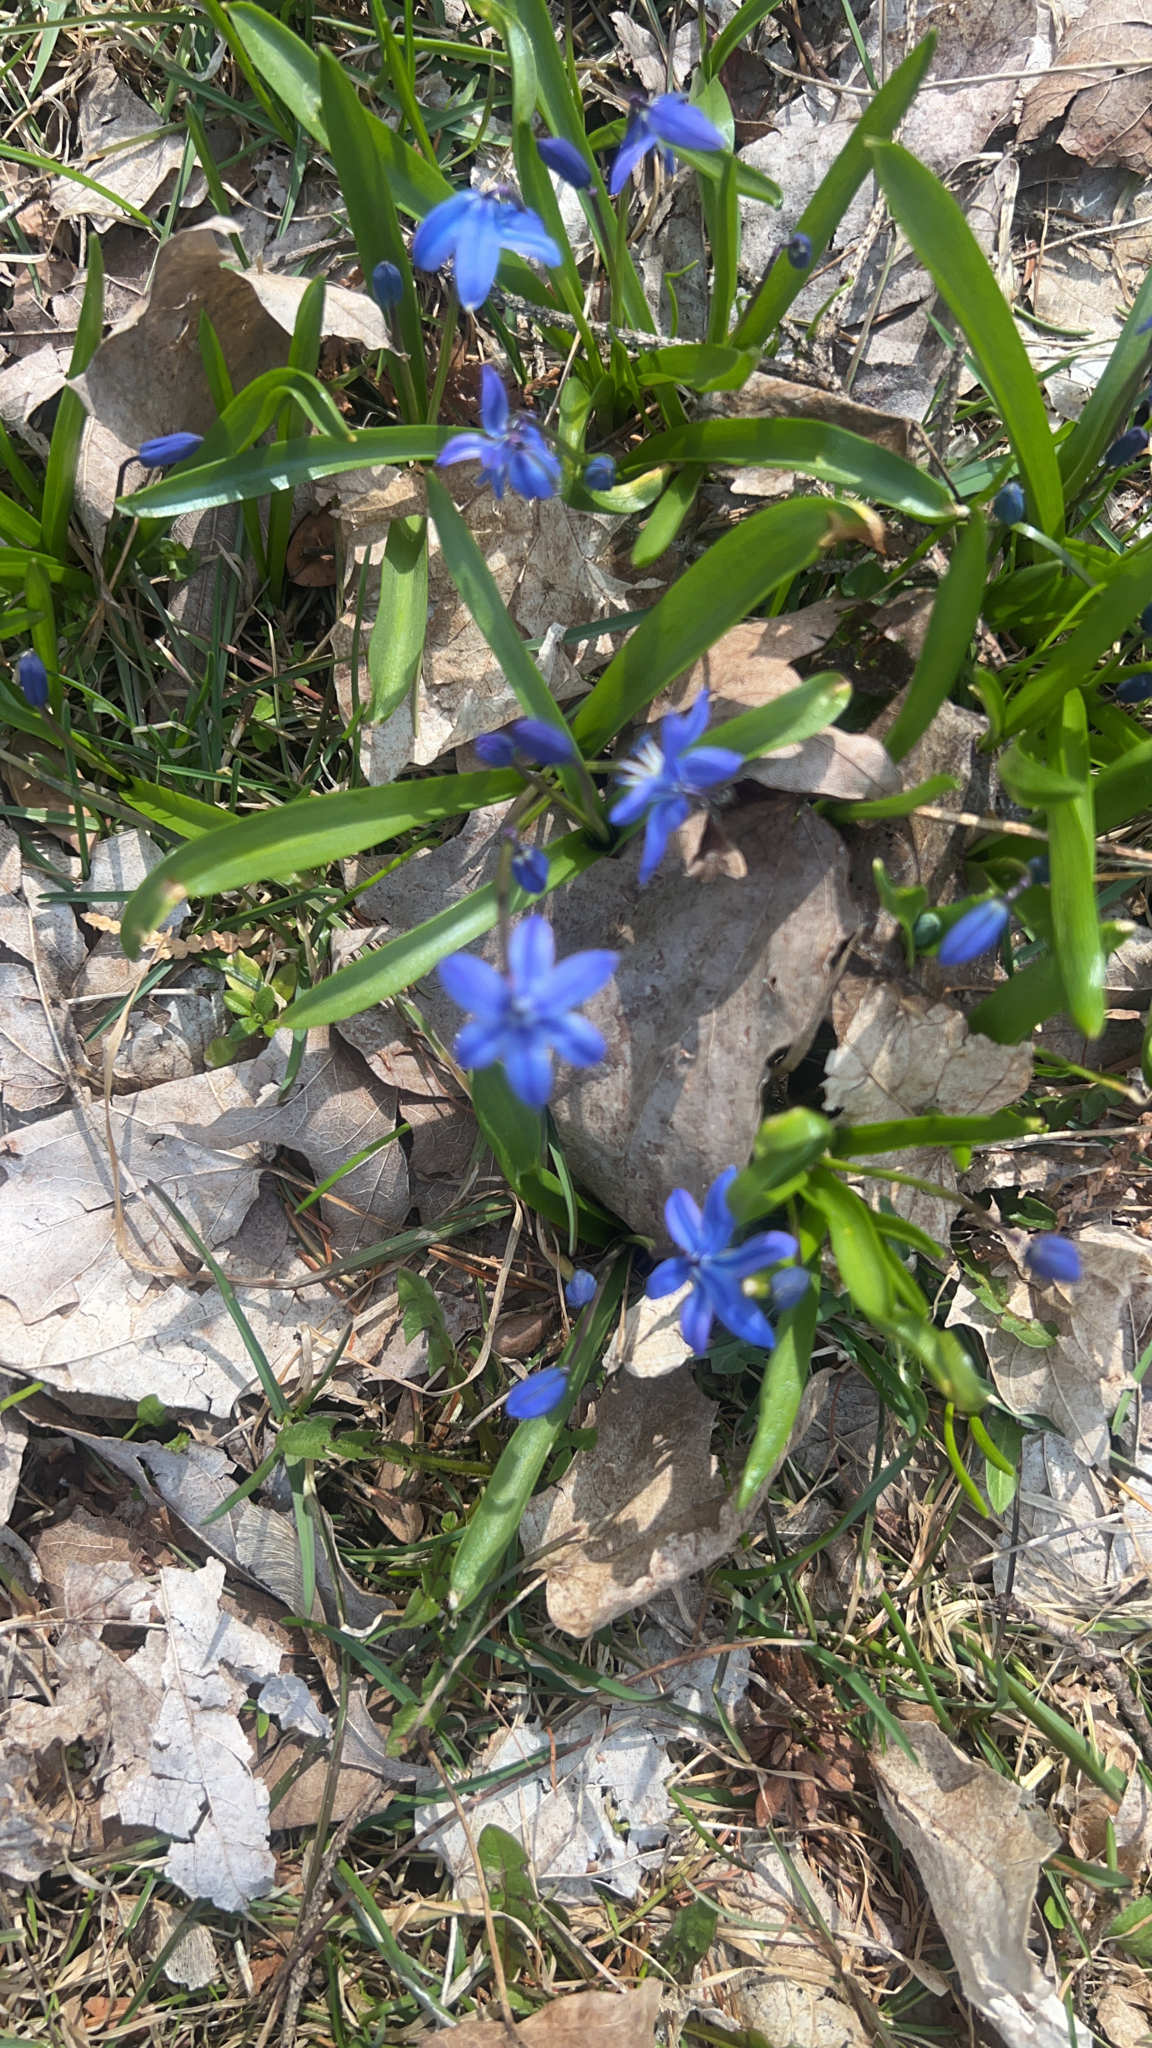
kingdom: Plantae
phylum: Tracheophyta
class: Liliopsida
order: Asparagales
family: Asparagaceae
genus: Scilla
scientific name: Scilla siberica
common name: Siberian squill
